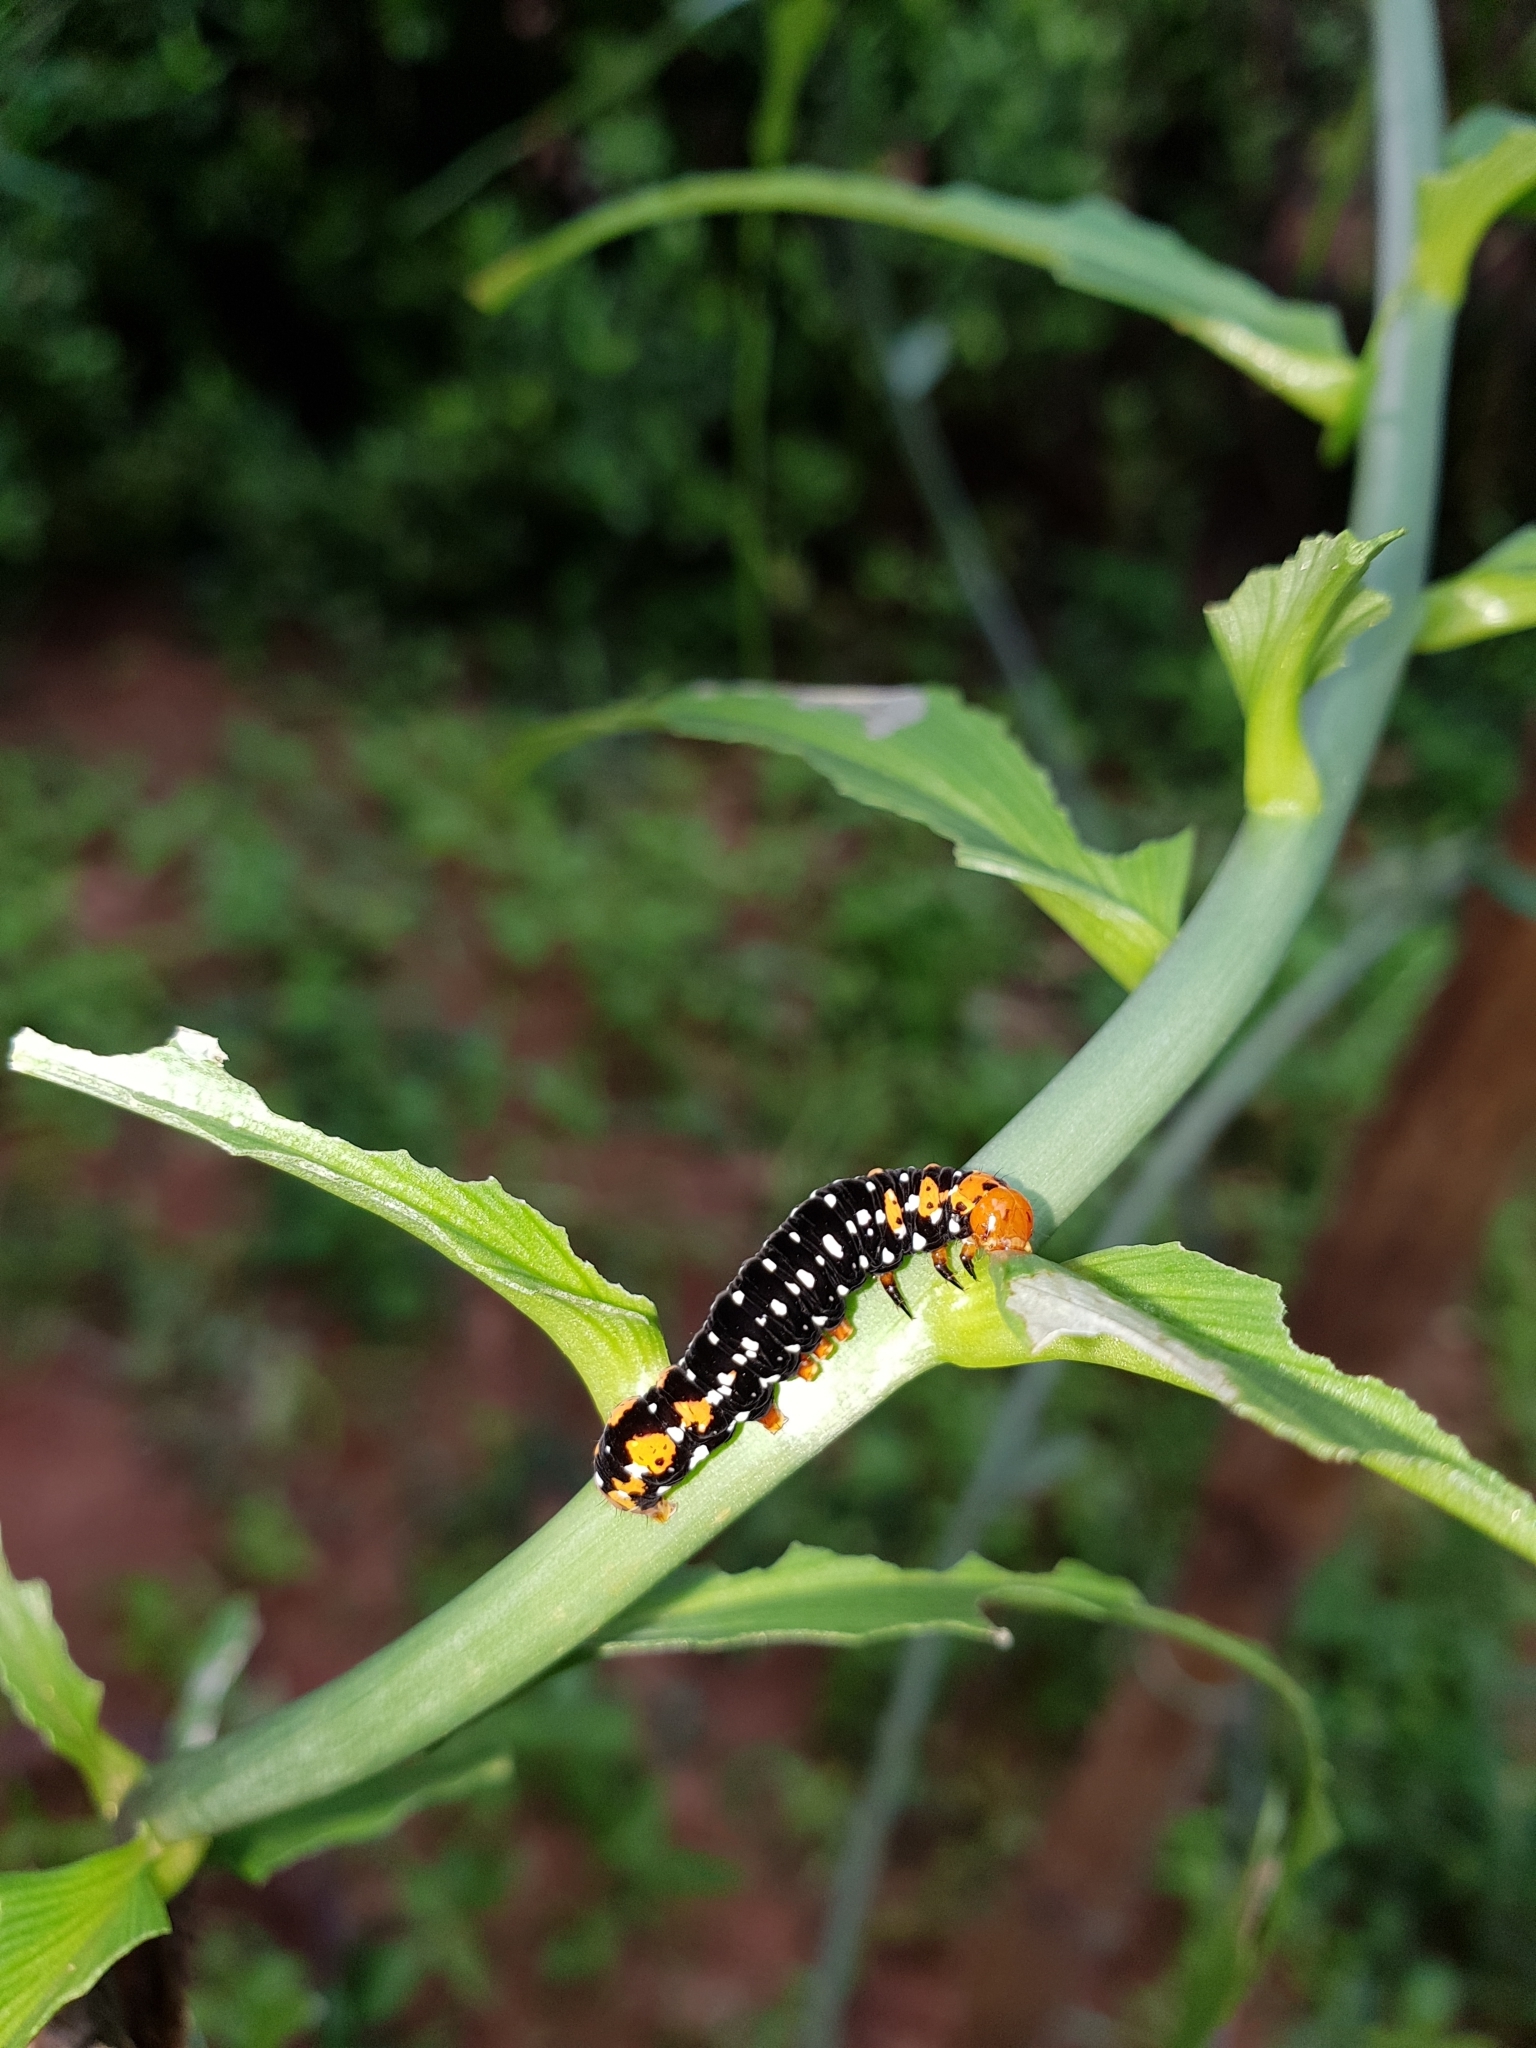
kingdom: Animalia
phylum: Arthropoda
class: Insecta
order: Lepidoptera
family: Noctuidae
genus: Polytela
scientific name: Polytela gloriosae
